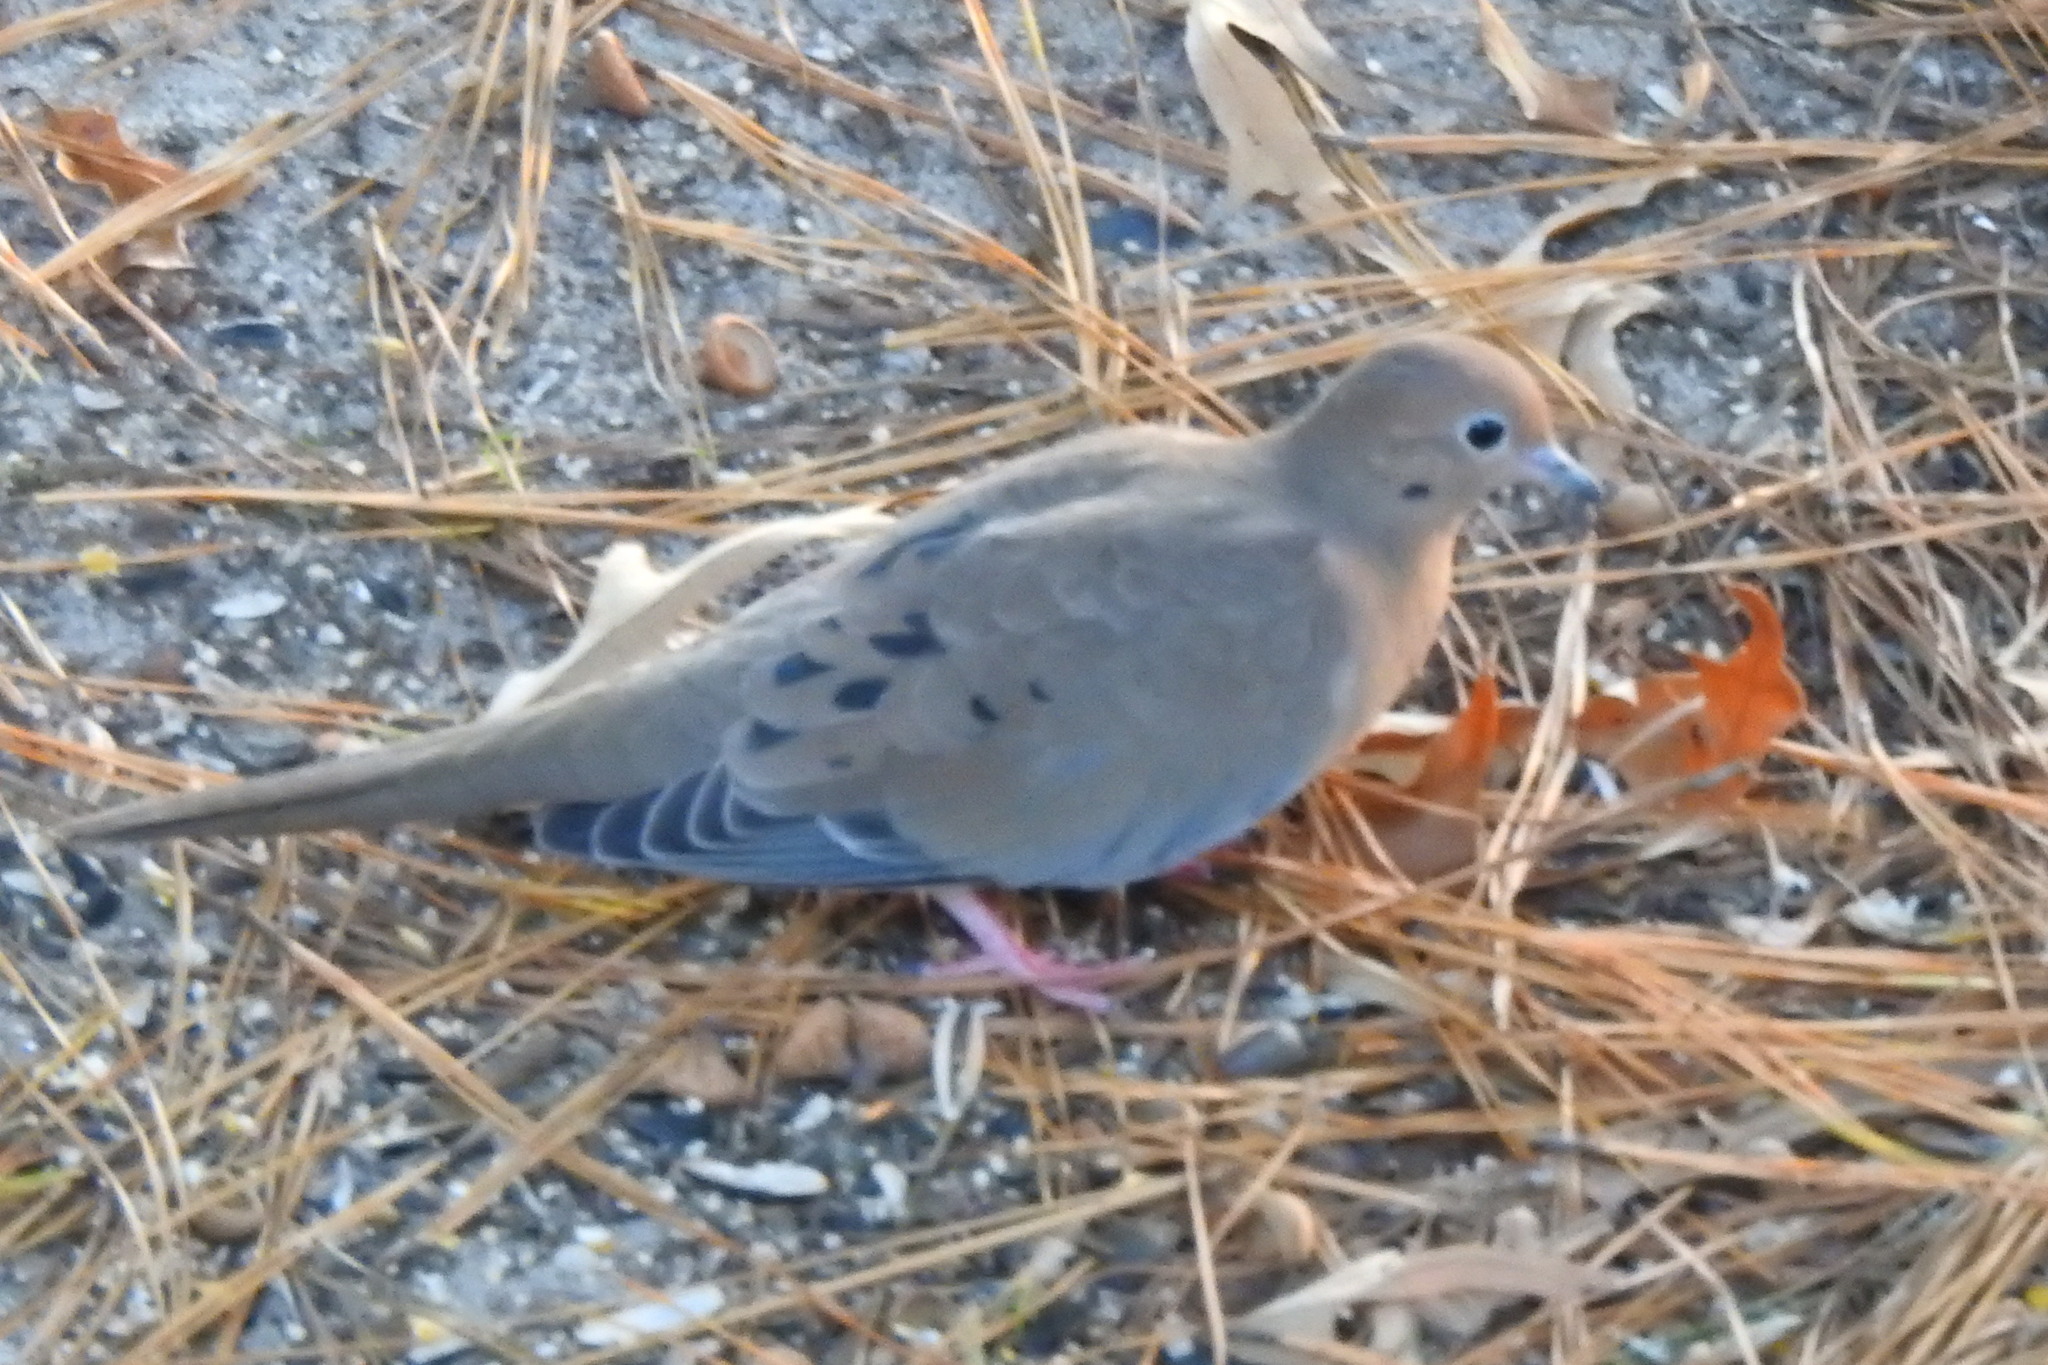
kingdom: Animalia
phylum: Chordata
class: Aves
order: Columbiformes
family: Columbidae
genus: Zenaida
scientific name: Zenaida macroura
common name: Mourning dove
